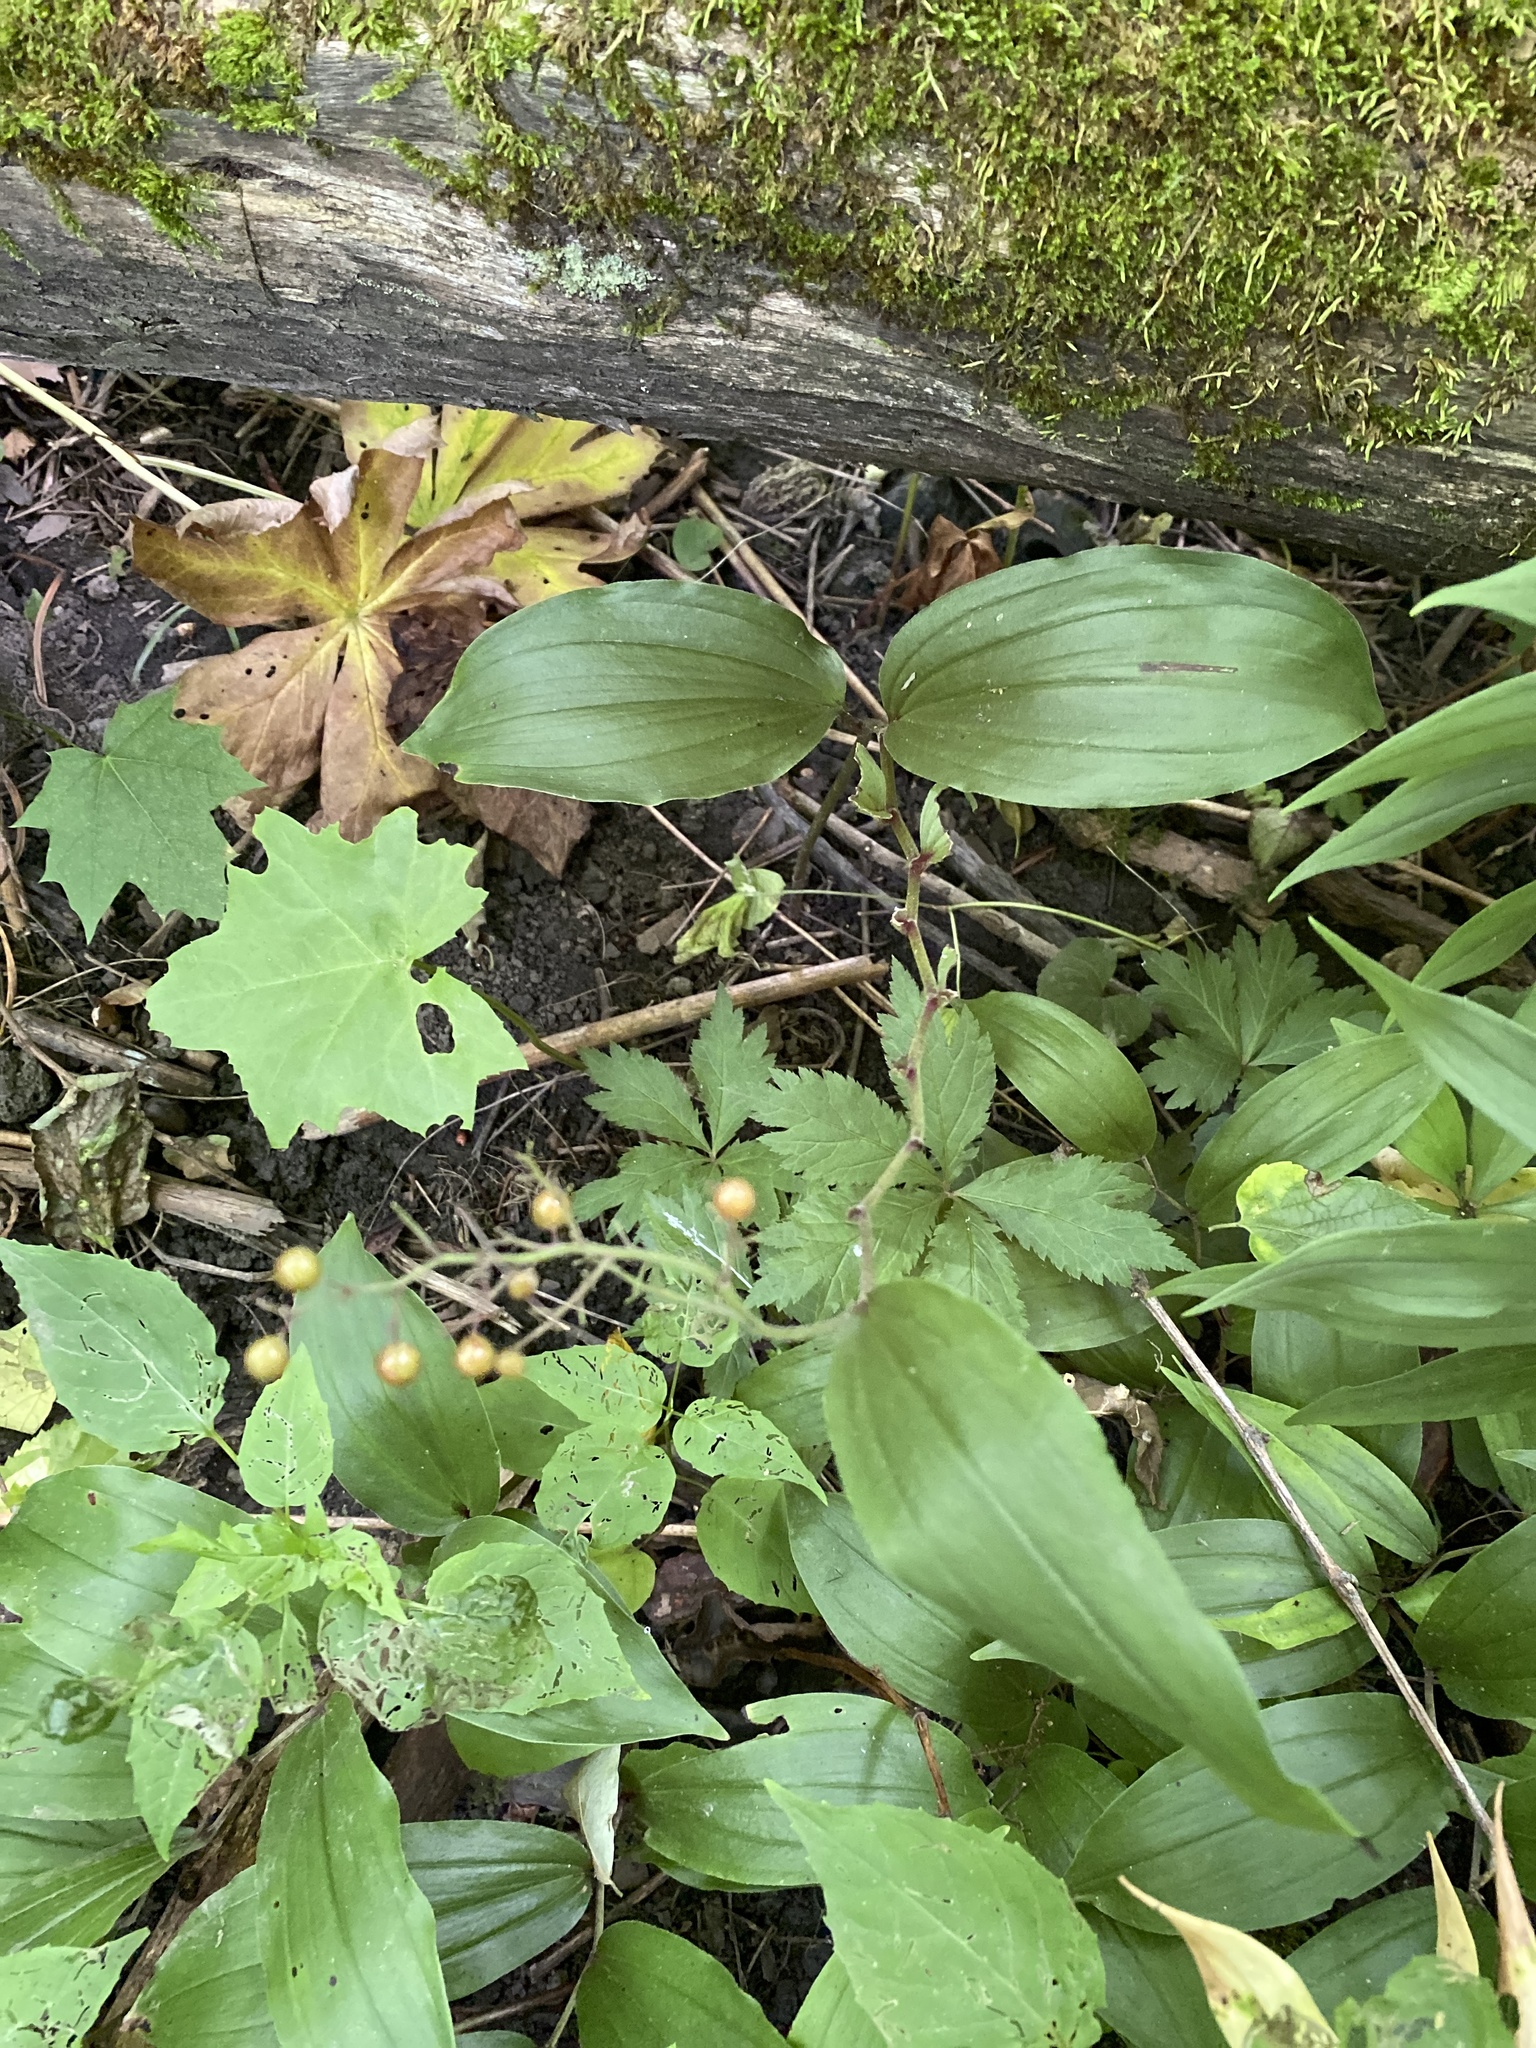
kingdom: Plantae
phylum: Tracheophyta
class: Liliopsida
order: Asparagales
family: Asparagaceae
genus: Maianthemum
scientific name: Maianthemum racemosum
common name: False spikenard
